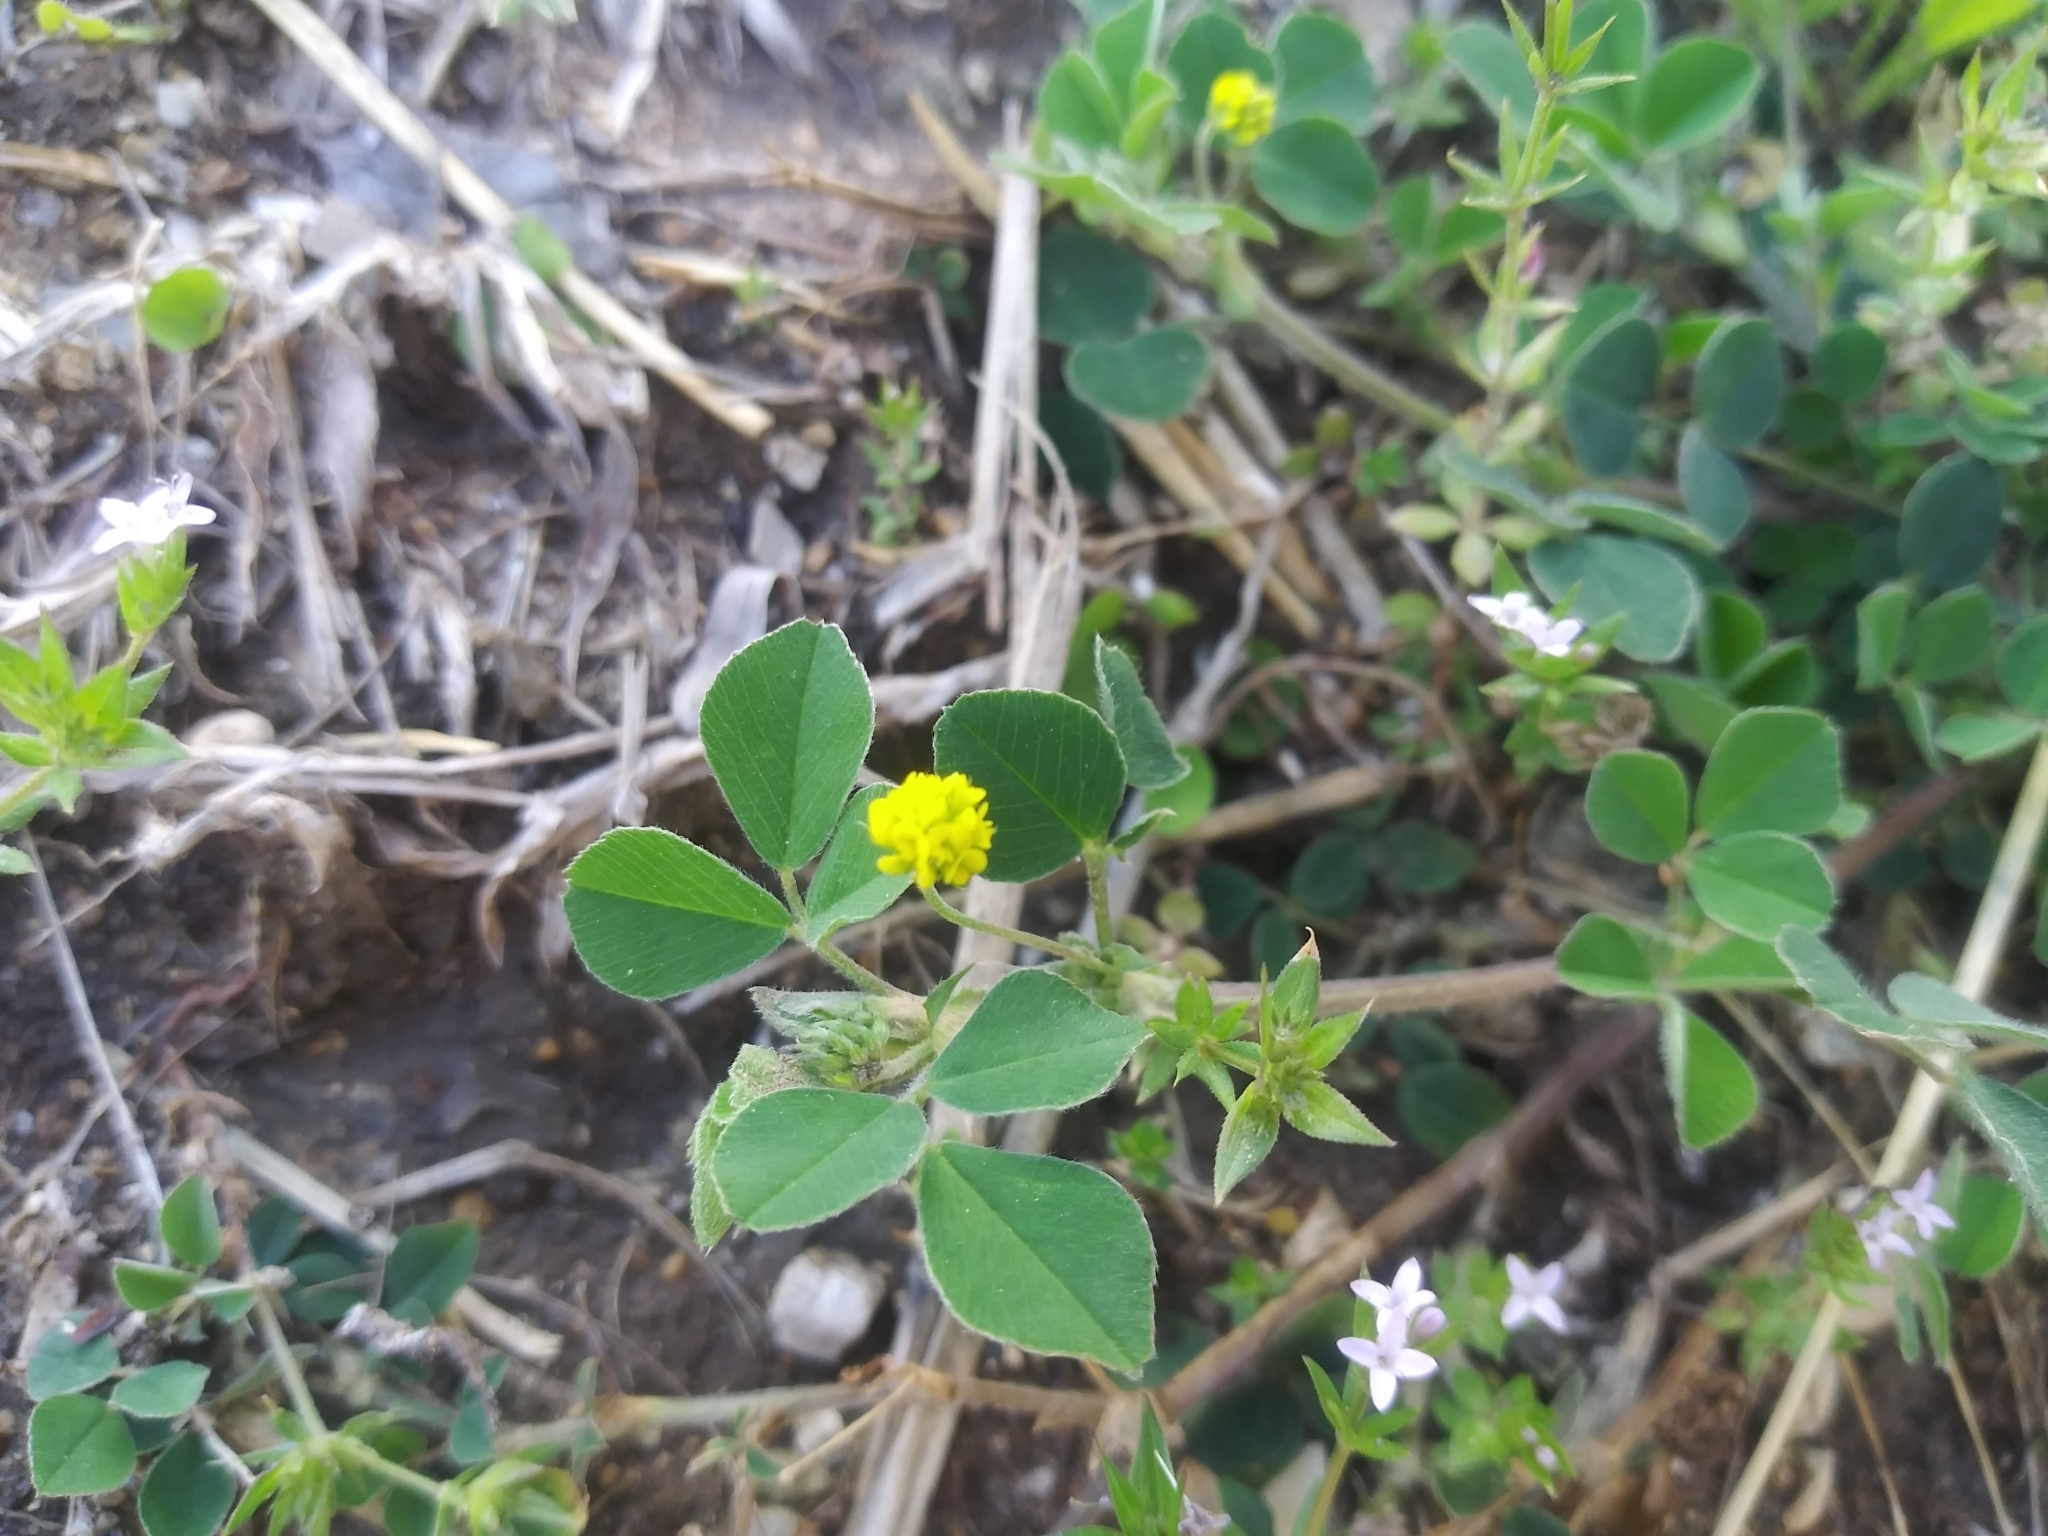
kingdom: Plantae
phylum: Tracheophyta
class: Magnoliopsida
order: Fabales
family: Fabaceae
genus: Medicago
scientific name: Medicago lupulina
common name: Black medick
